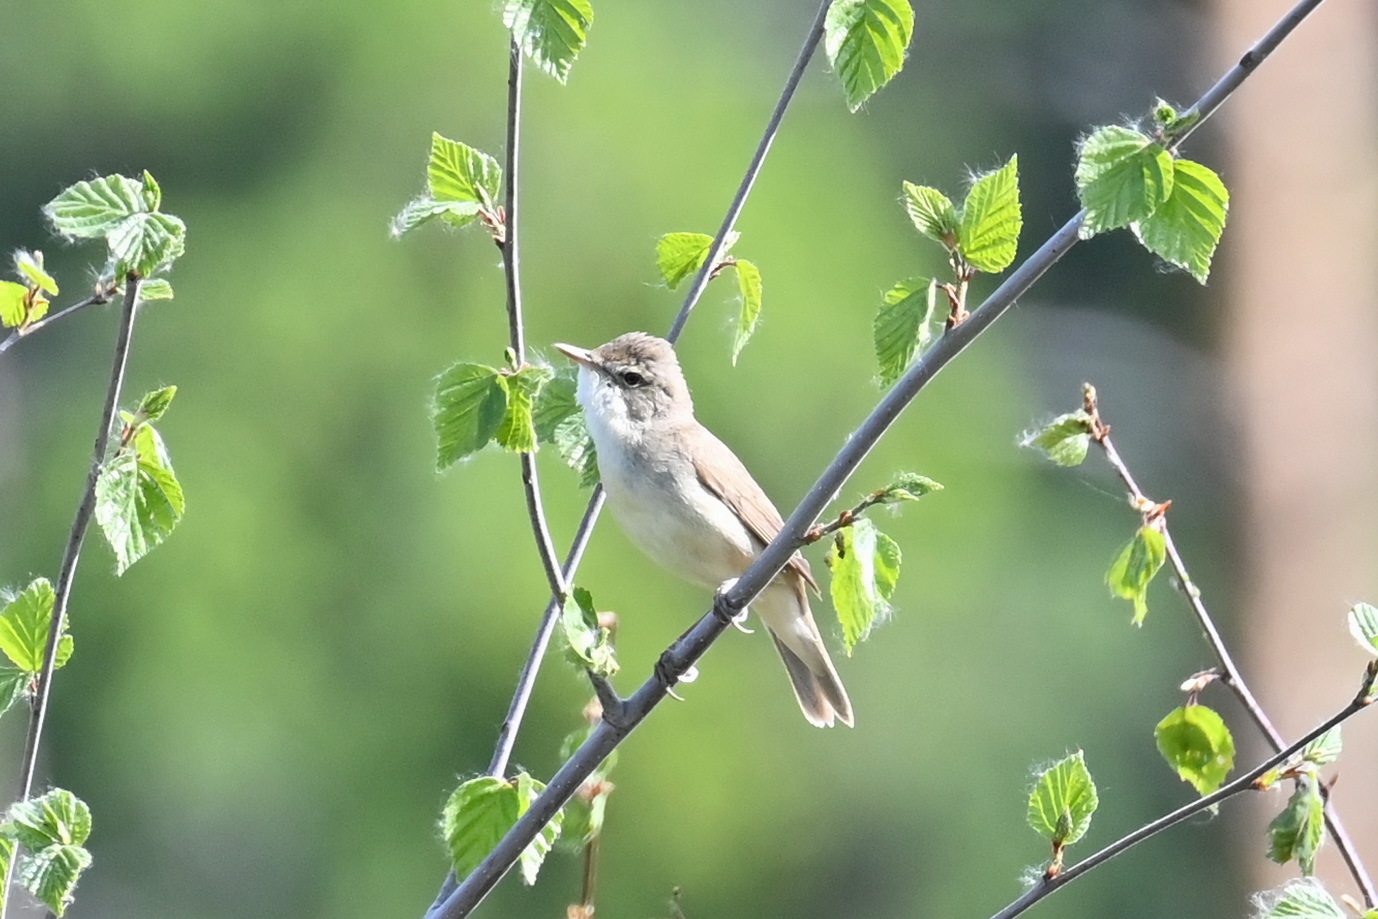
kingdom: Animalia
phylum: Chordata
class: Aves
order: Passeriformes
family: Acrocephalidae
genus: Acrocephalus
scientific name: Acrocephalus dumetorum
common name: Blyth's reed warbler
